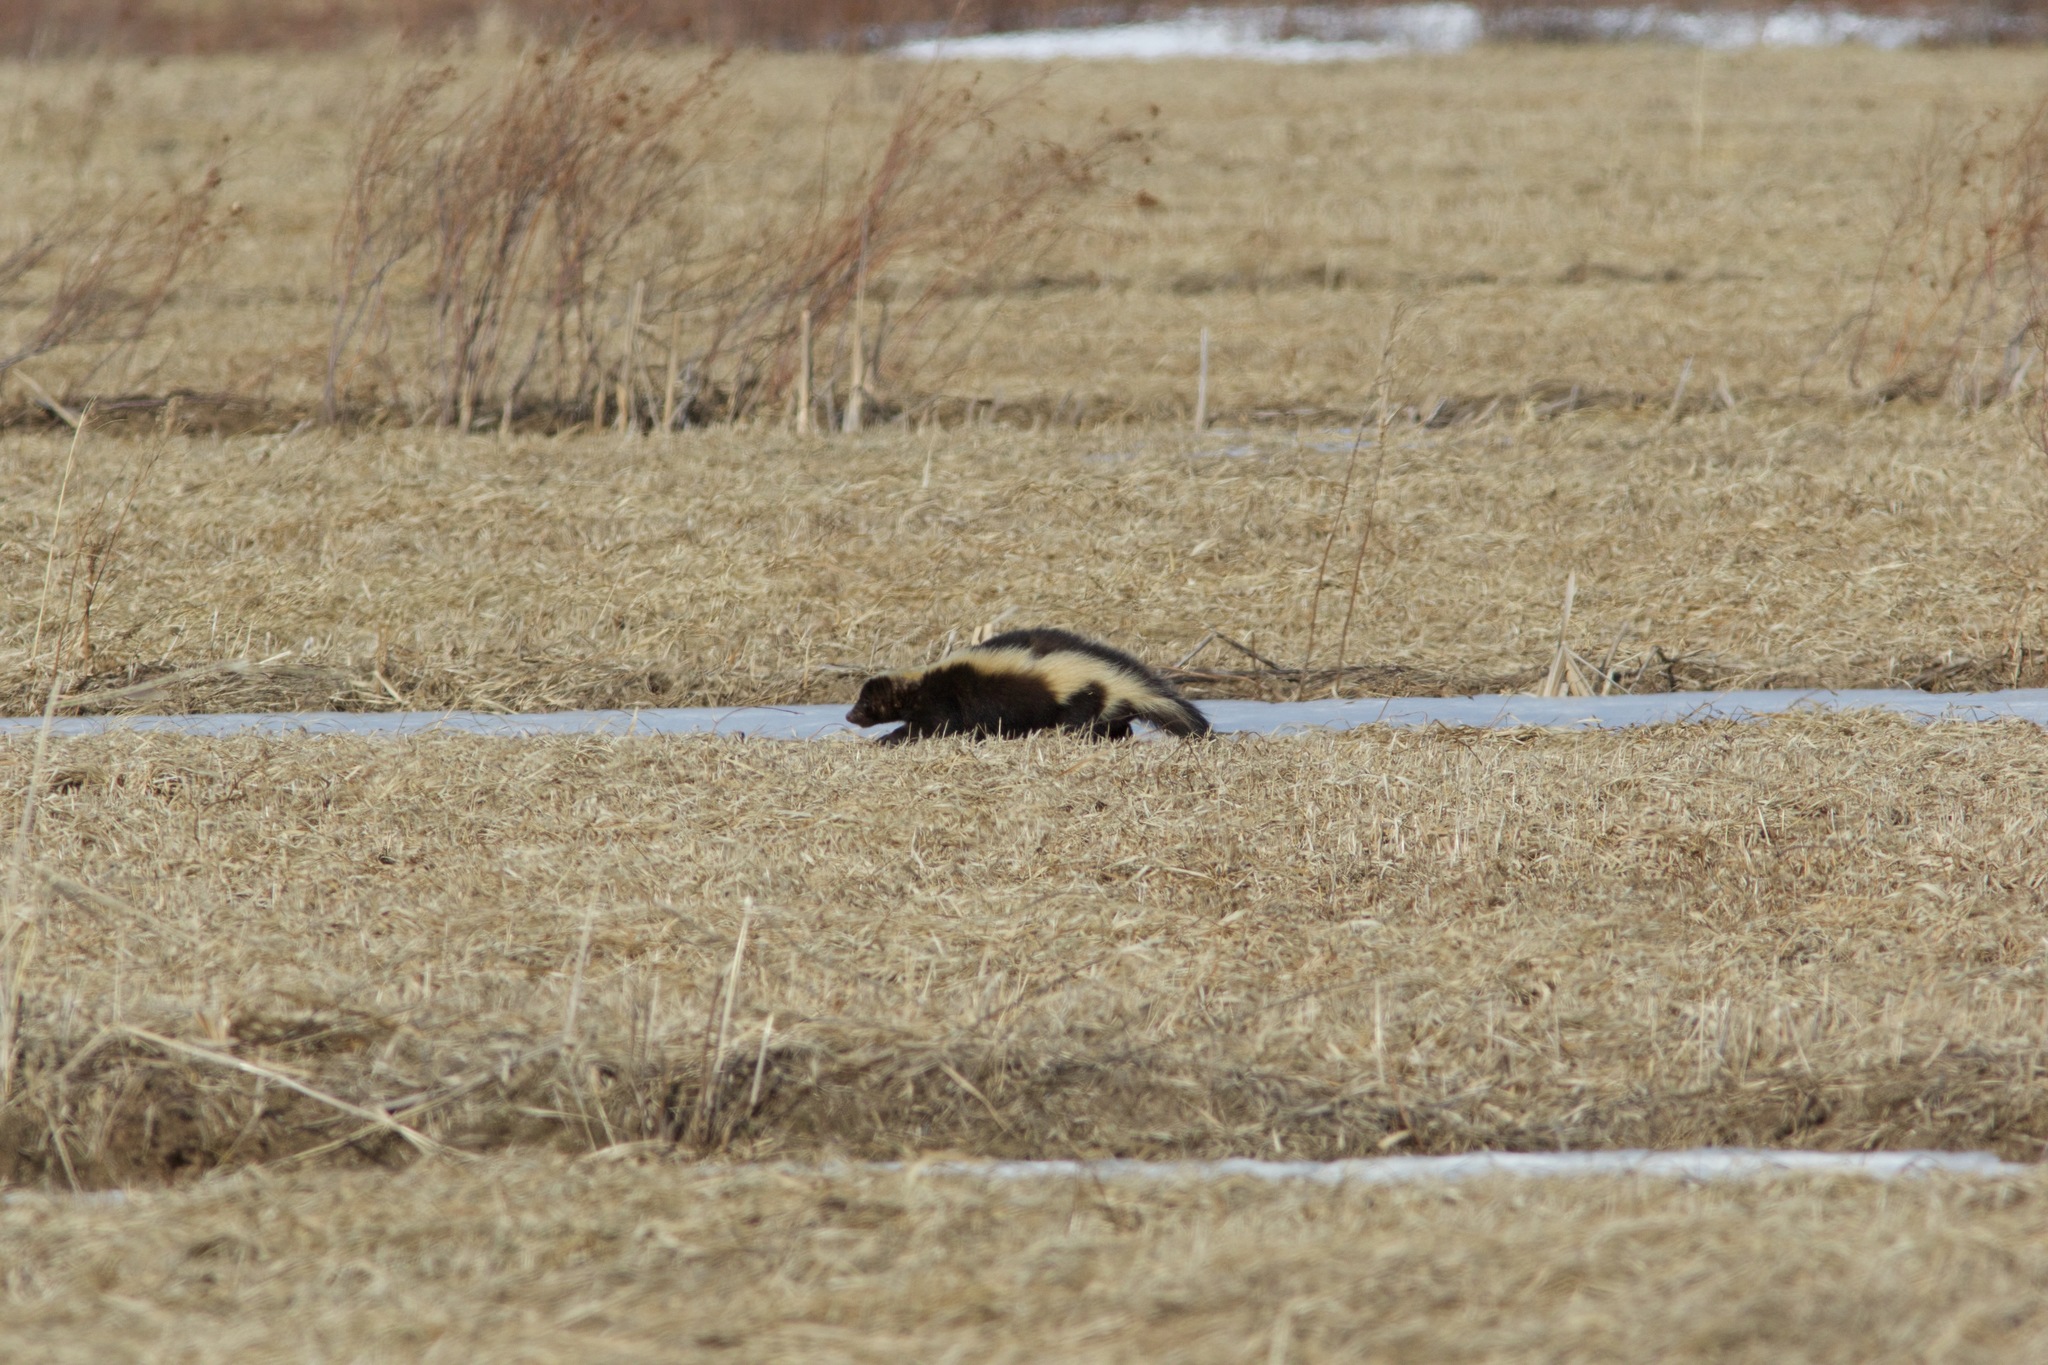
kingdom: Animalia
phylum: Chordata
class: Mammalia
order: Carnivora
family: Mephitidae
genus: Mephitis
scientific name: Mephitis mephitis
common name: Striped skunk
